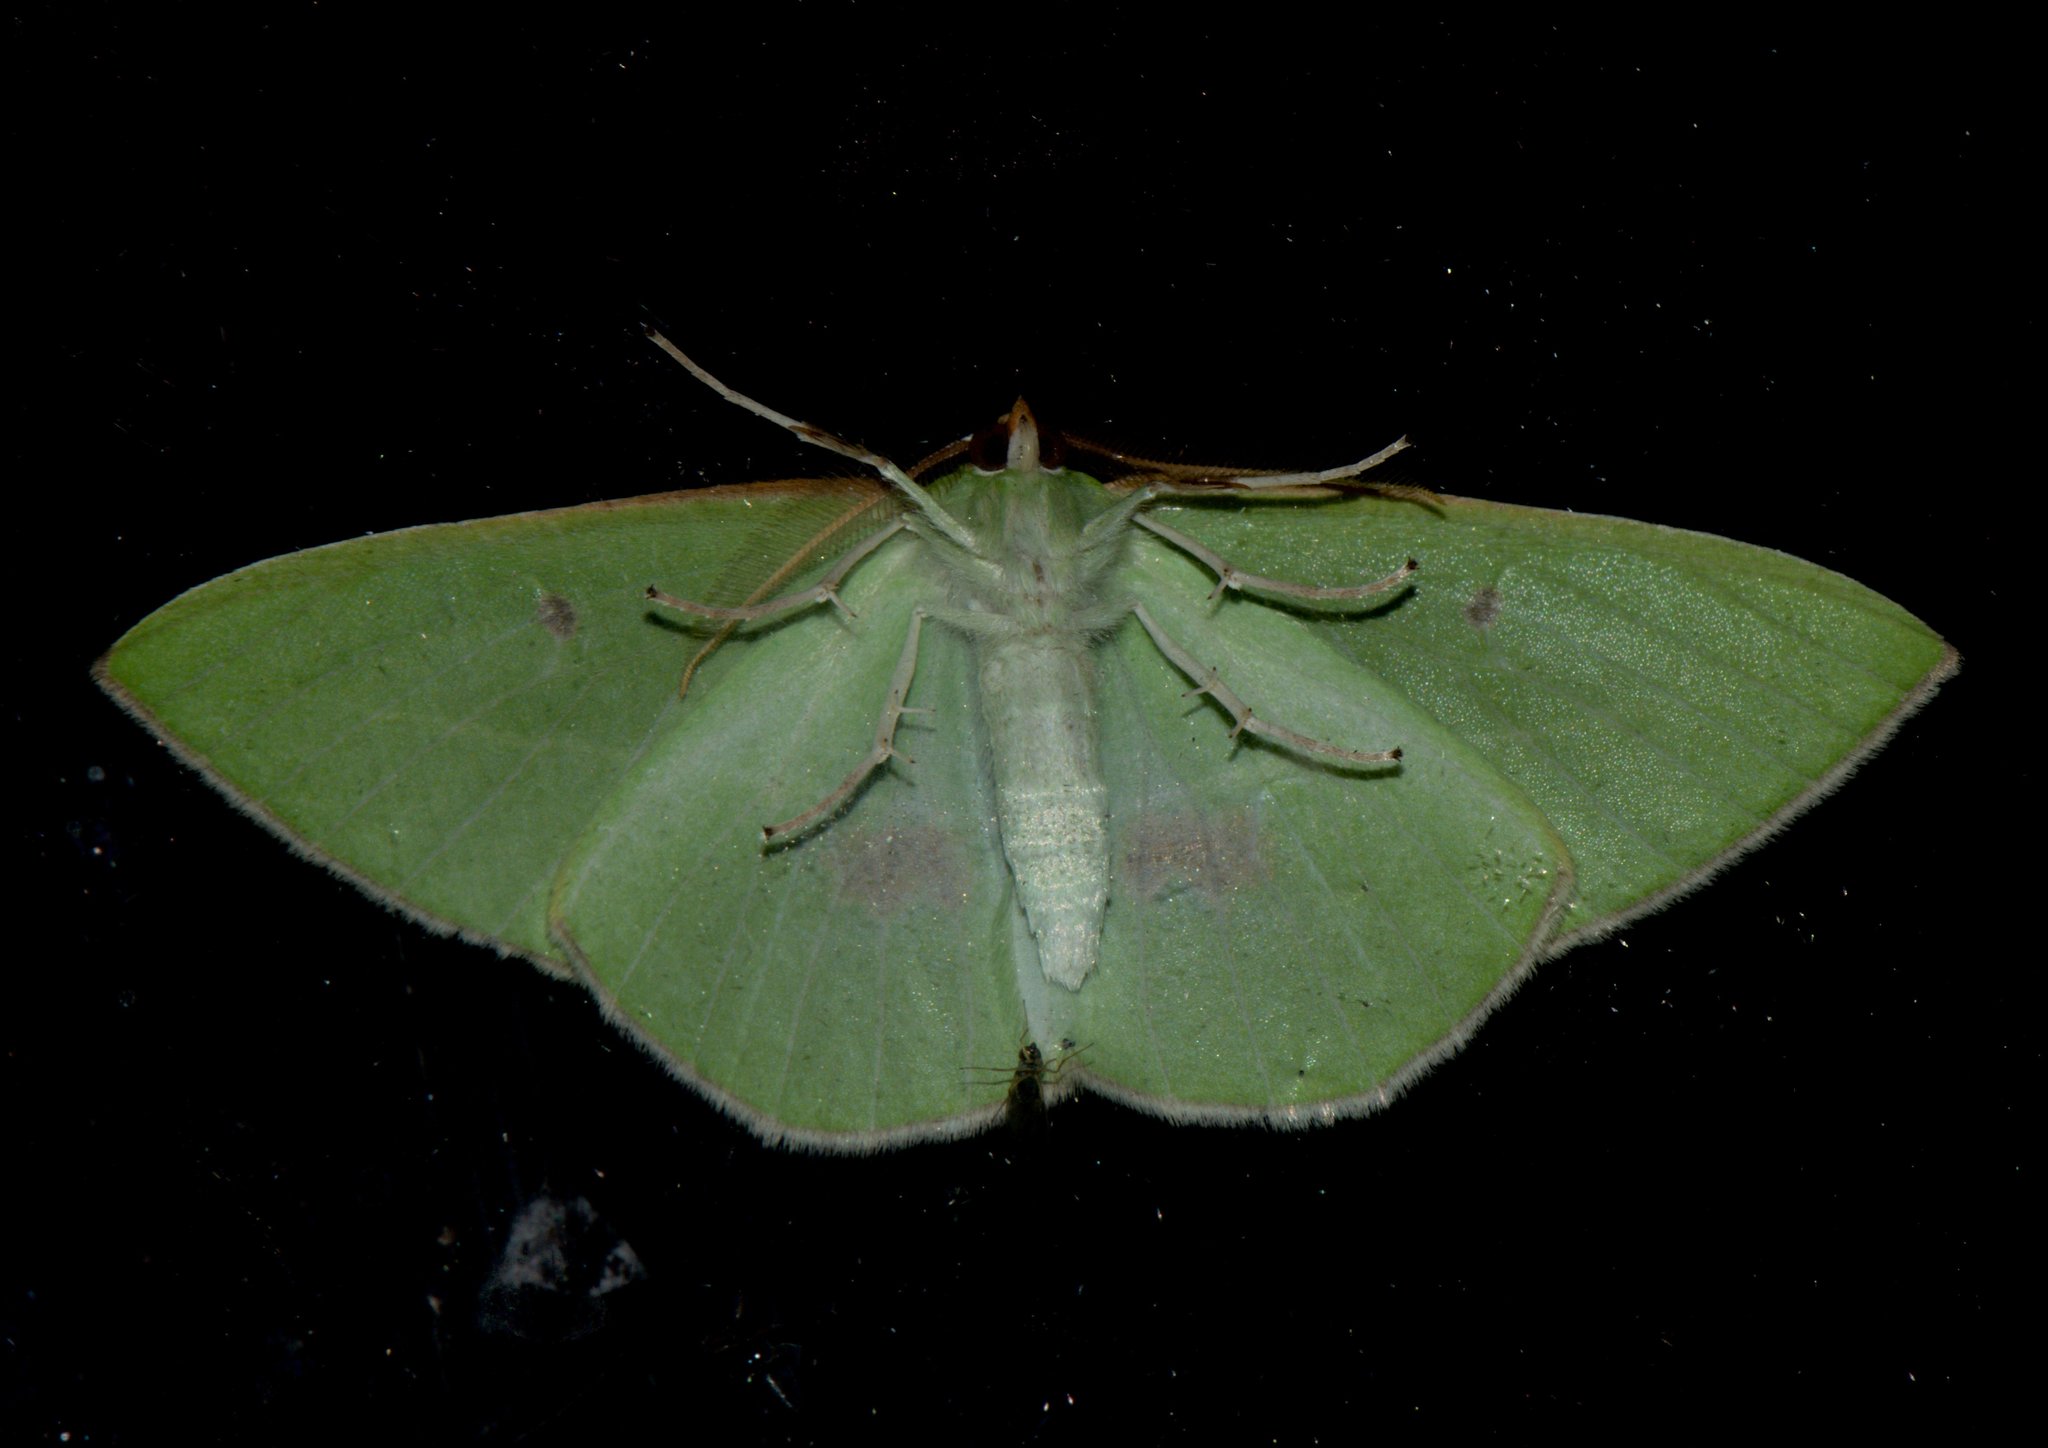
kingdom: Animalia
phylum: Arthropoda
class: Insecta
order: Lepidoptera
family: Geometridae
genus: Tanaoctenia
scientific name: Tanaoctenia haliaria
